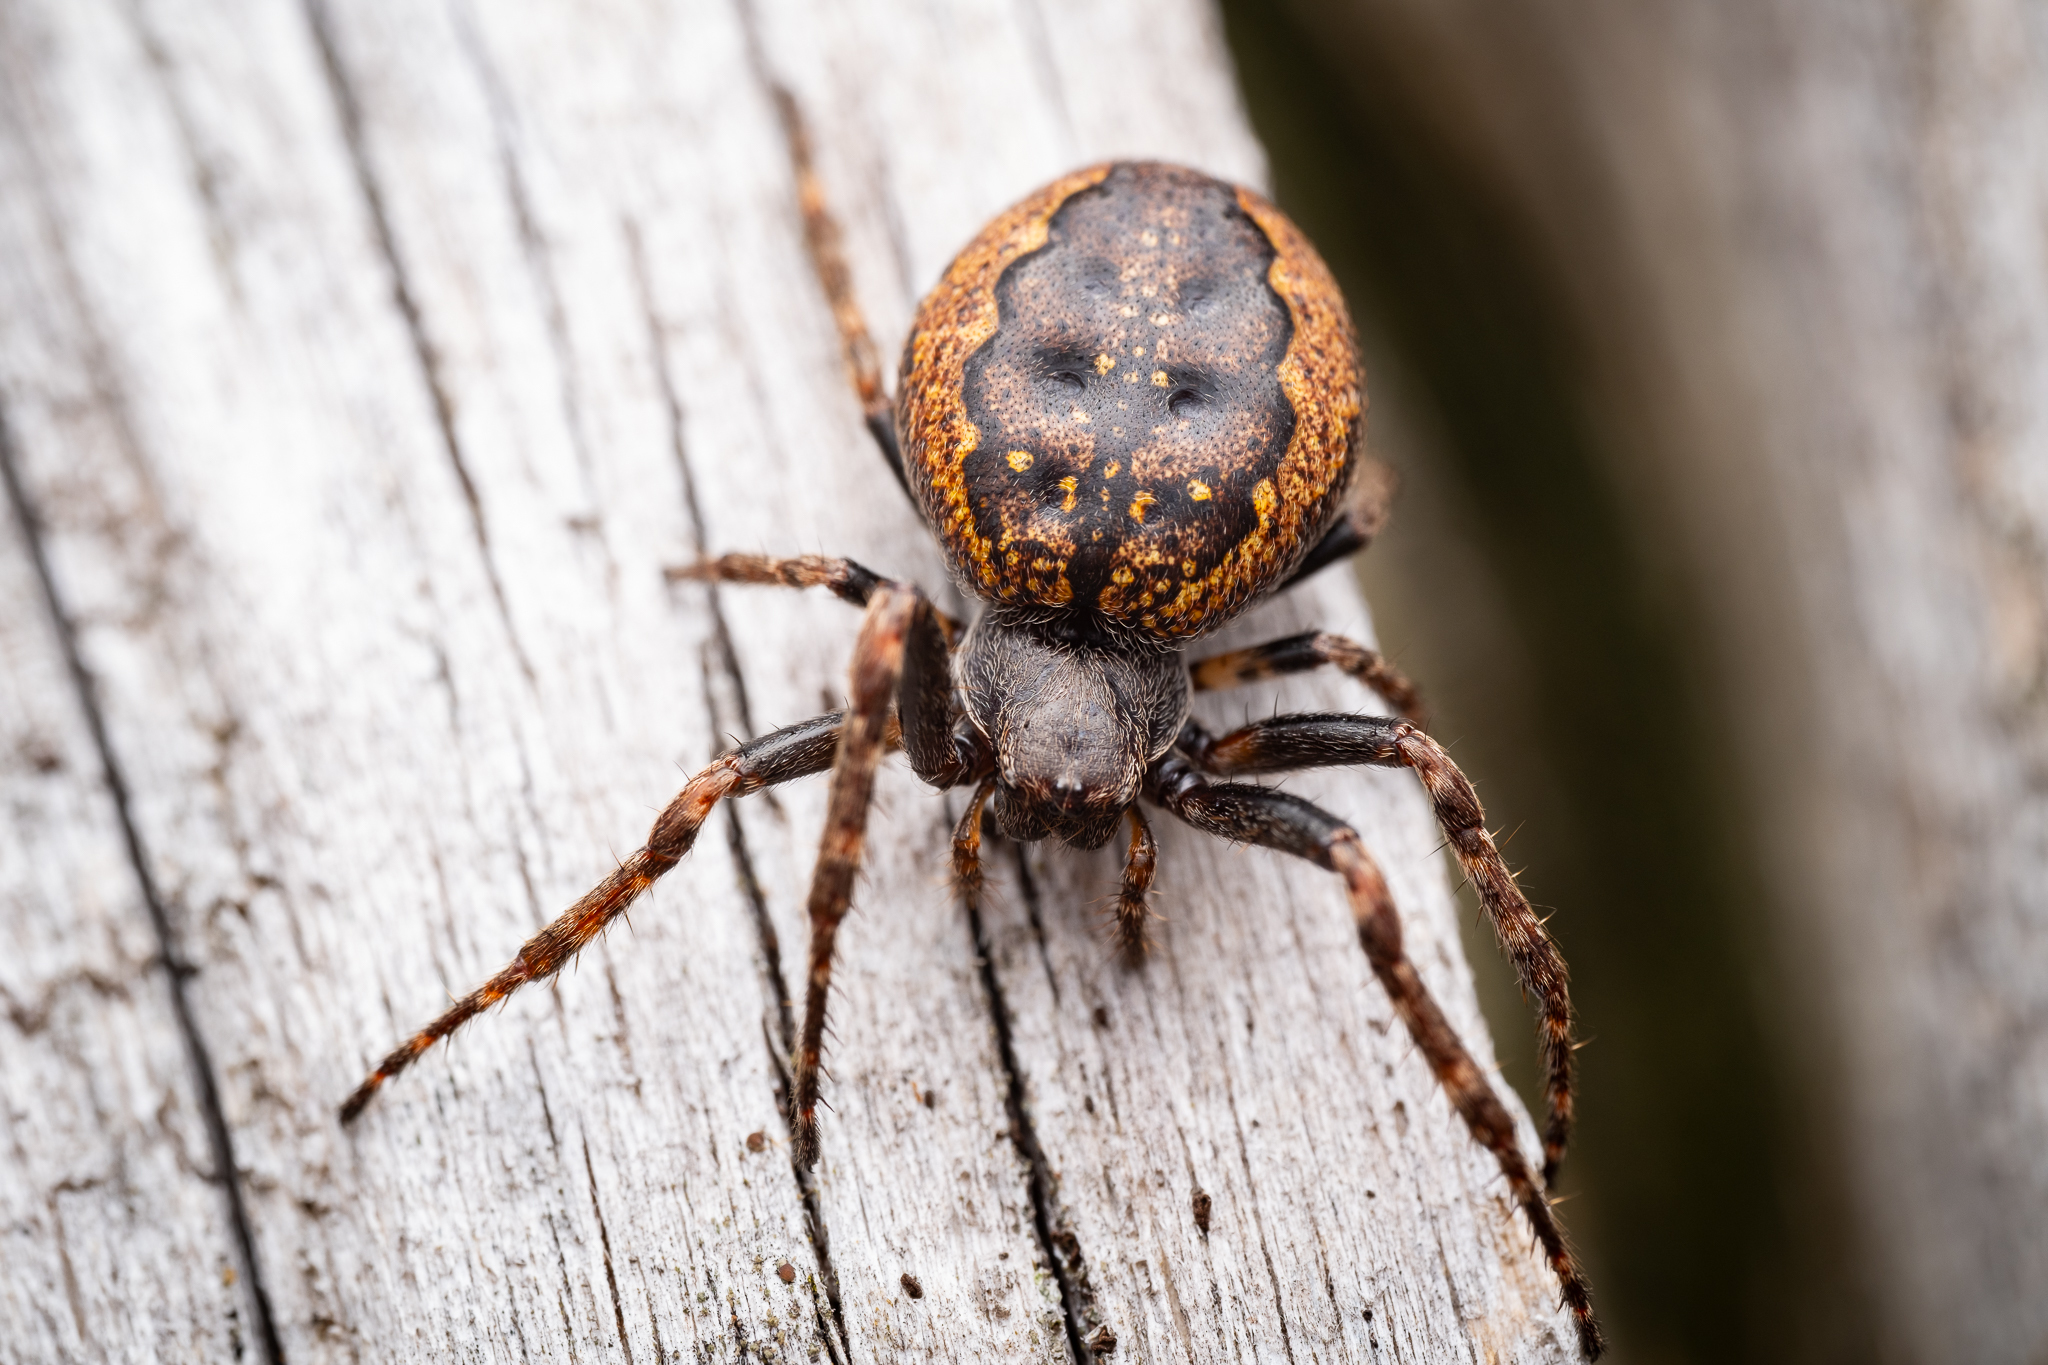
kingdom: Animalia
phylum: Arthropoda
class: Arachnida
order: Araneae
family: Araneidae
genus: Nuctenea
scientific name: Nuctenea umbratica
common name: Toad spider
